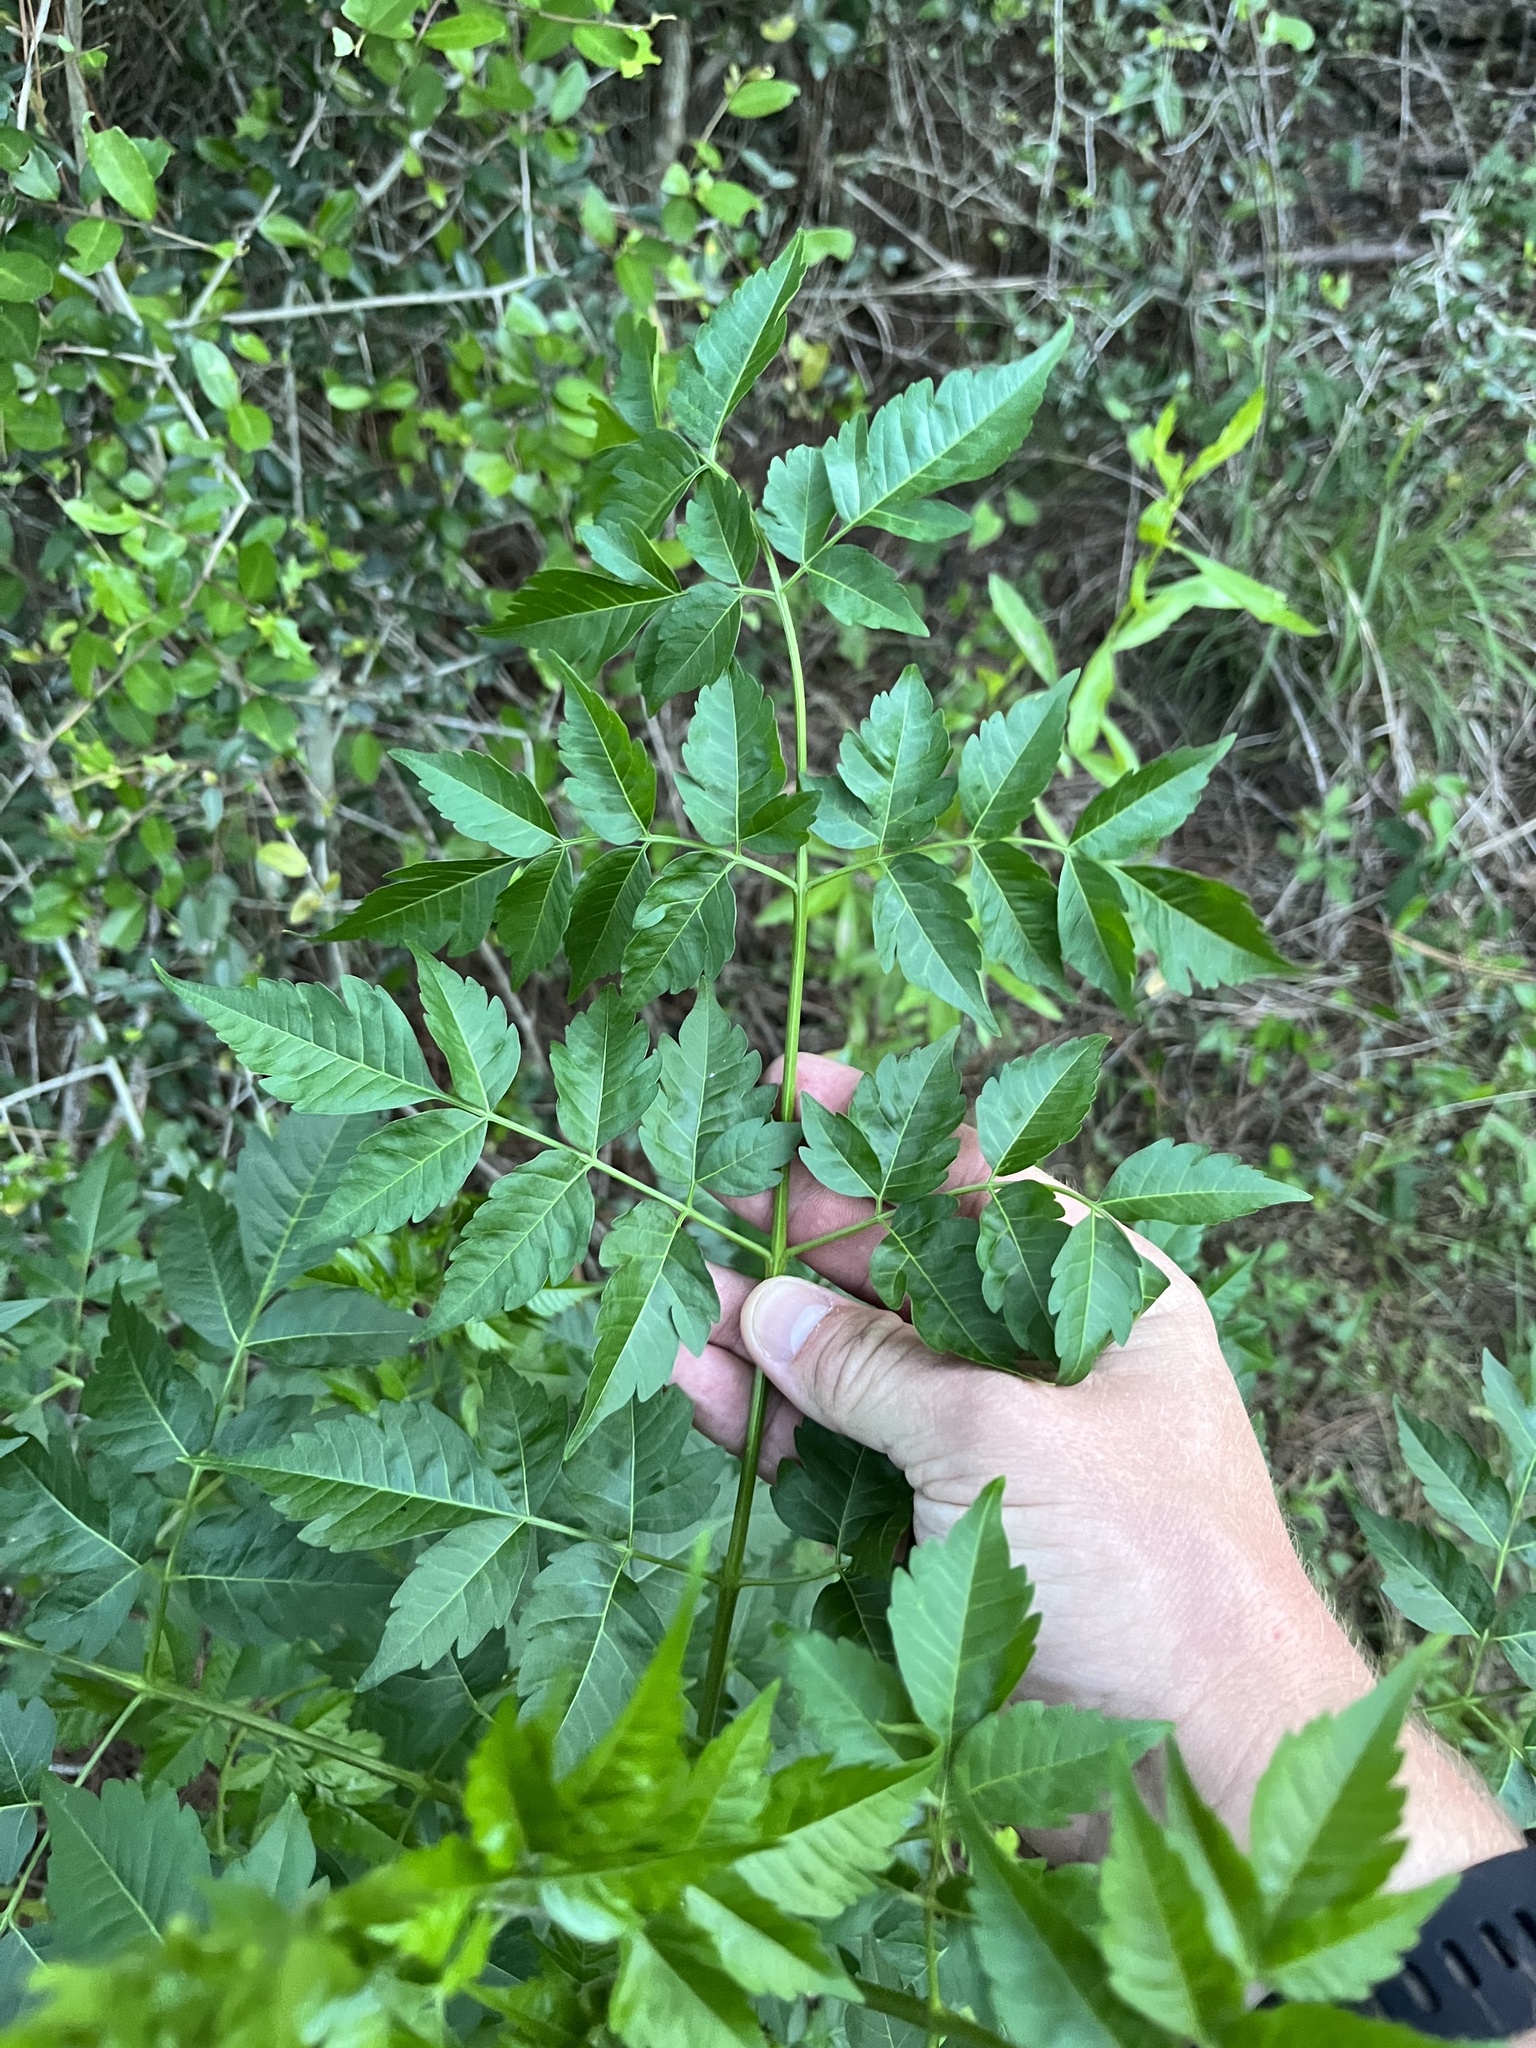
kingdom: Plantae
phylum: Tracheophyta
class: Magnoliopsida
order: Sapindales
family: Meliaceae
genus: Melia
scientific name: Melia azedarach
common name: Chinaberrytree
